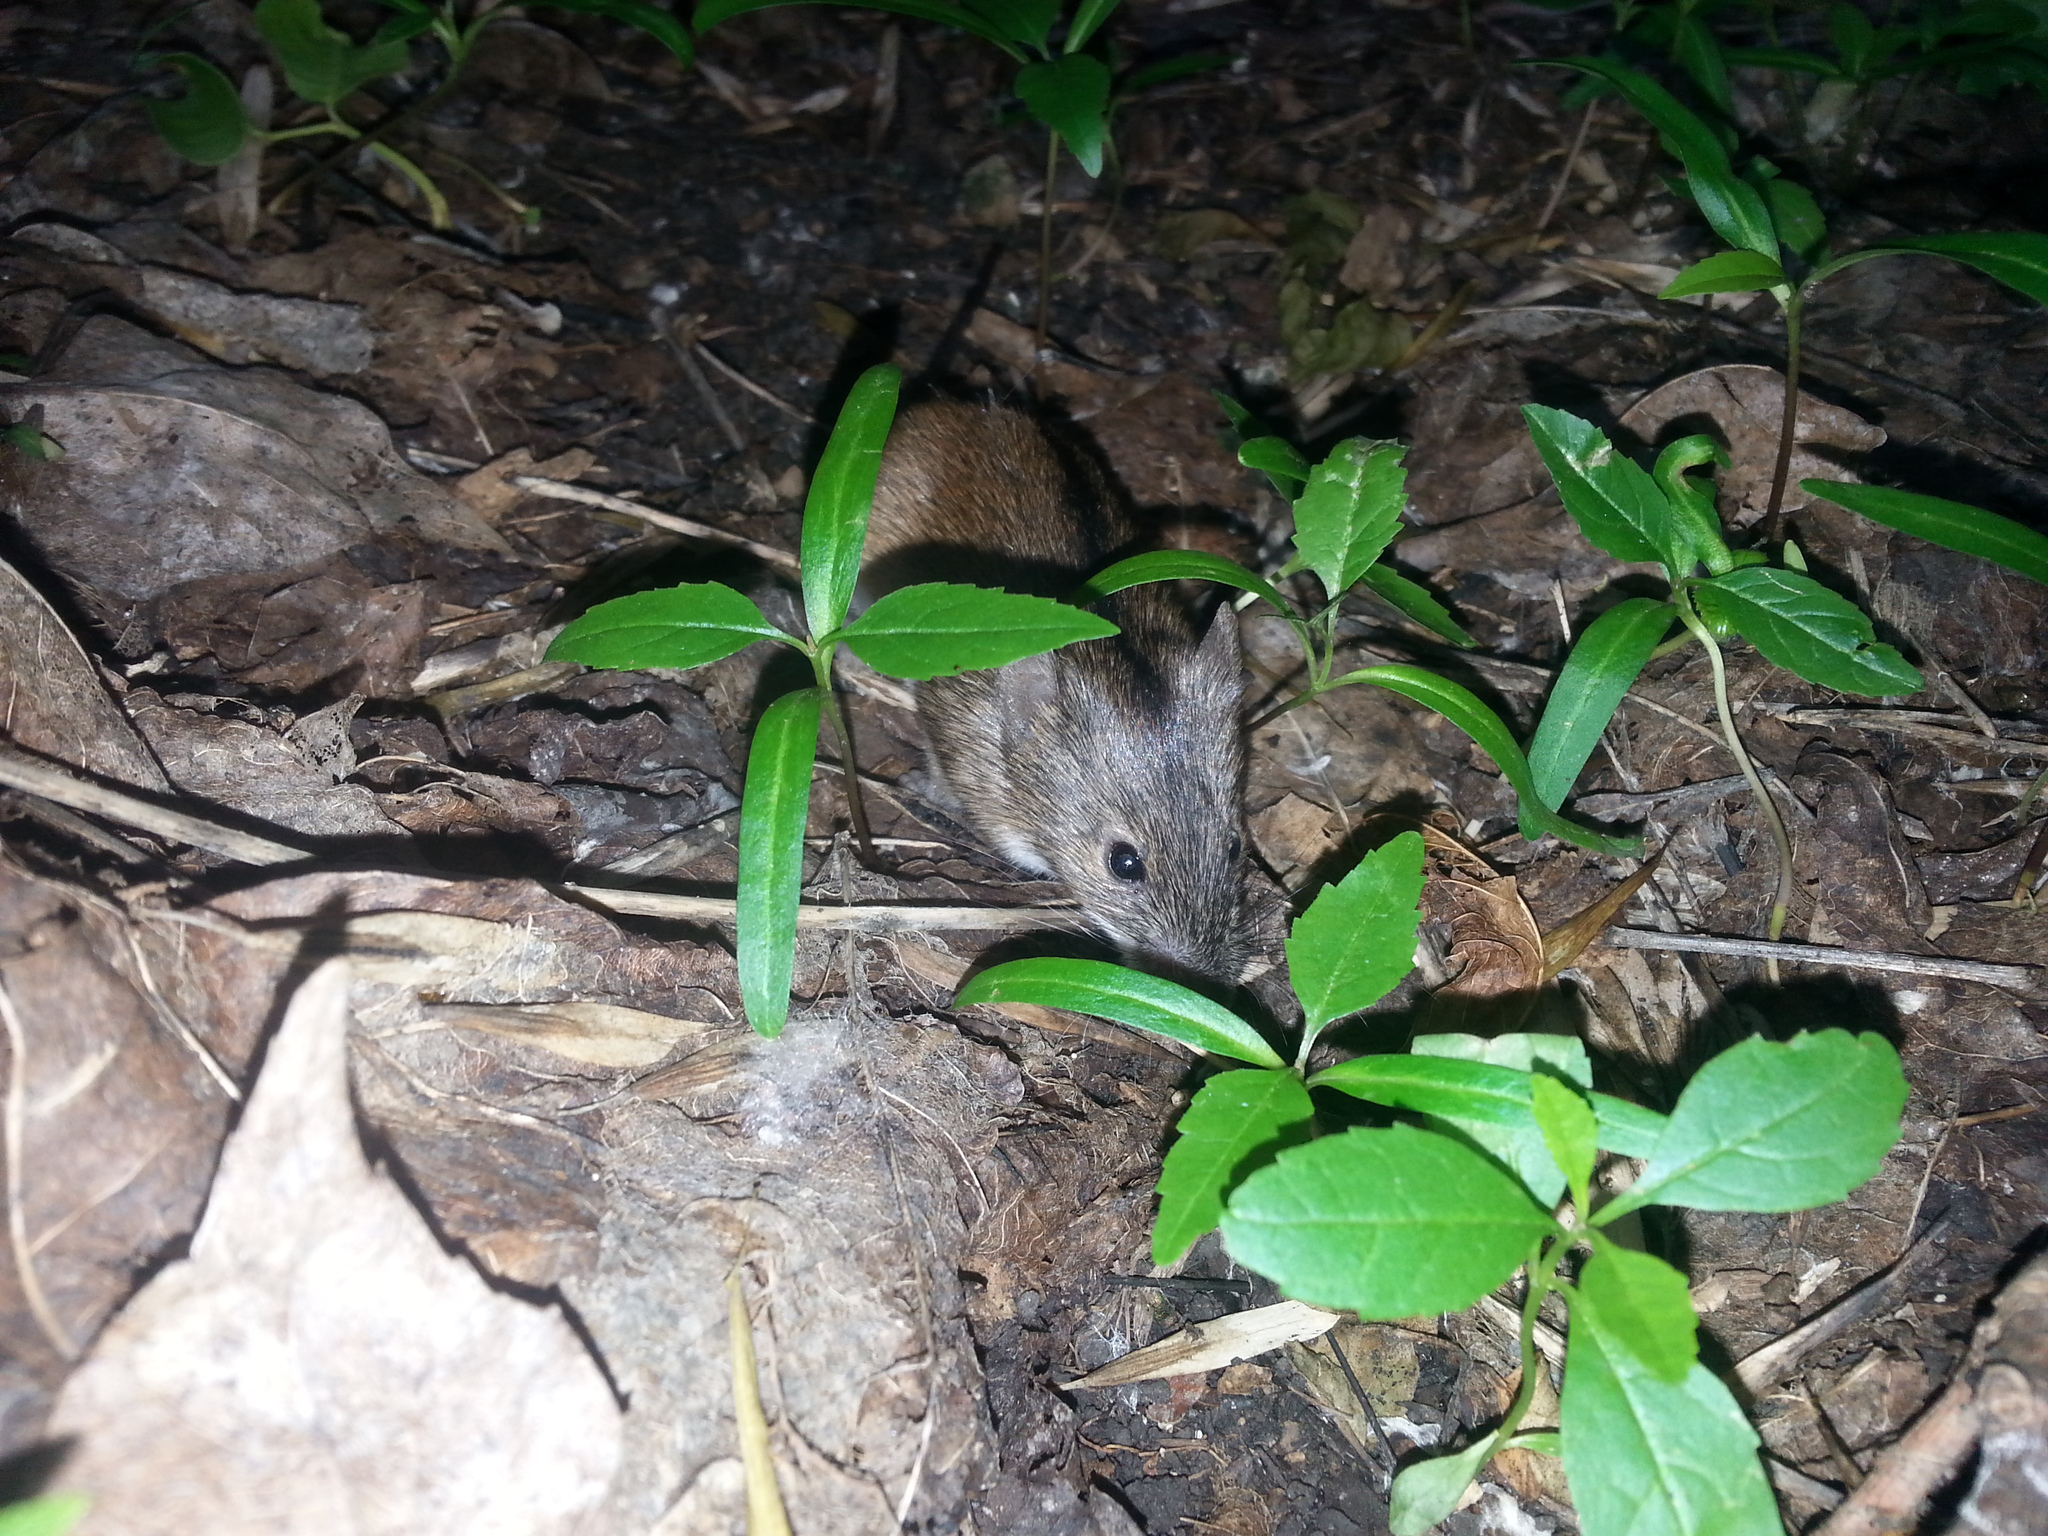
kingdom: Animalia
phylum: Chordata
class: Mammalia
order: Rodentia
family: Muridae
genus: Apodemus
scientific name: Apodemus agrarius
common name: Striped field mouse
